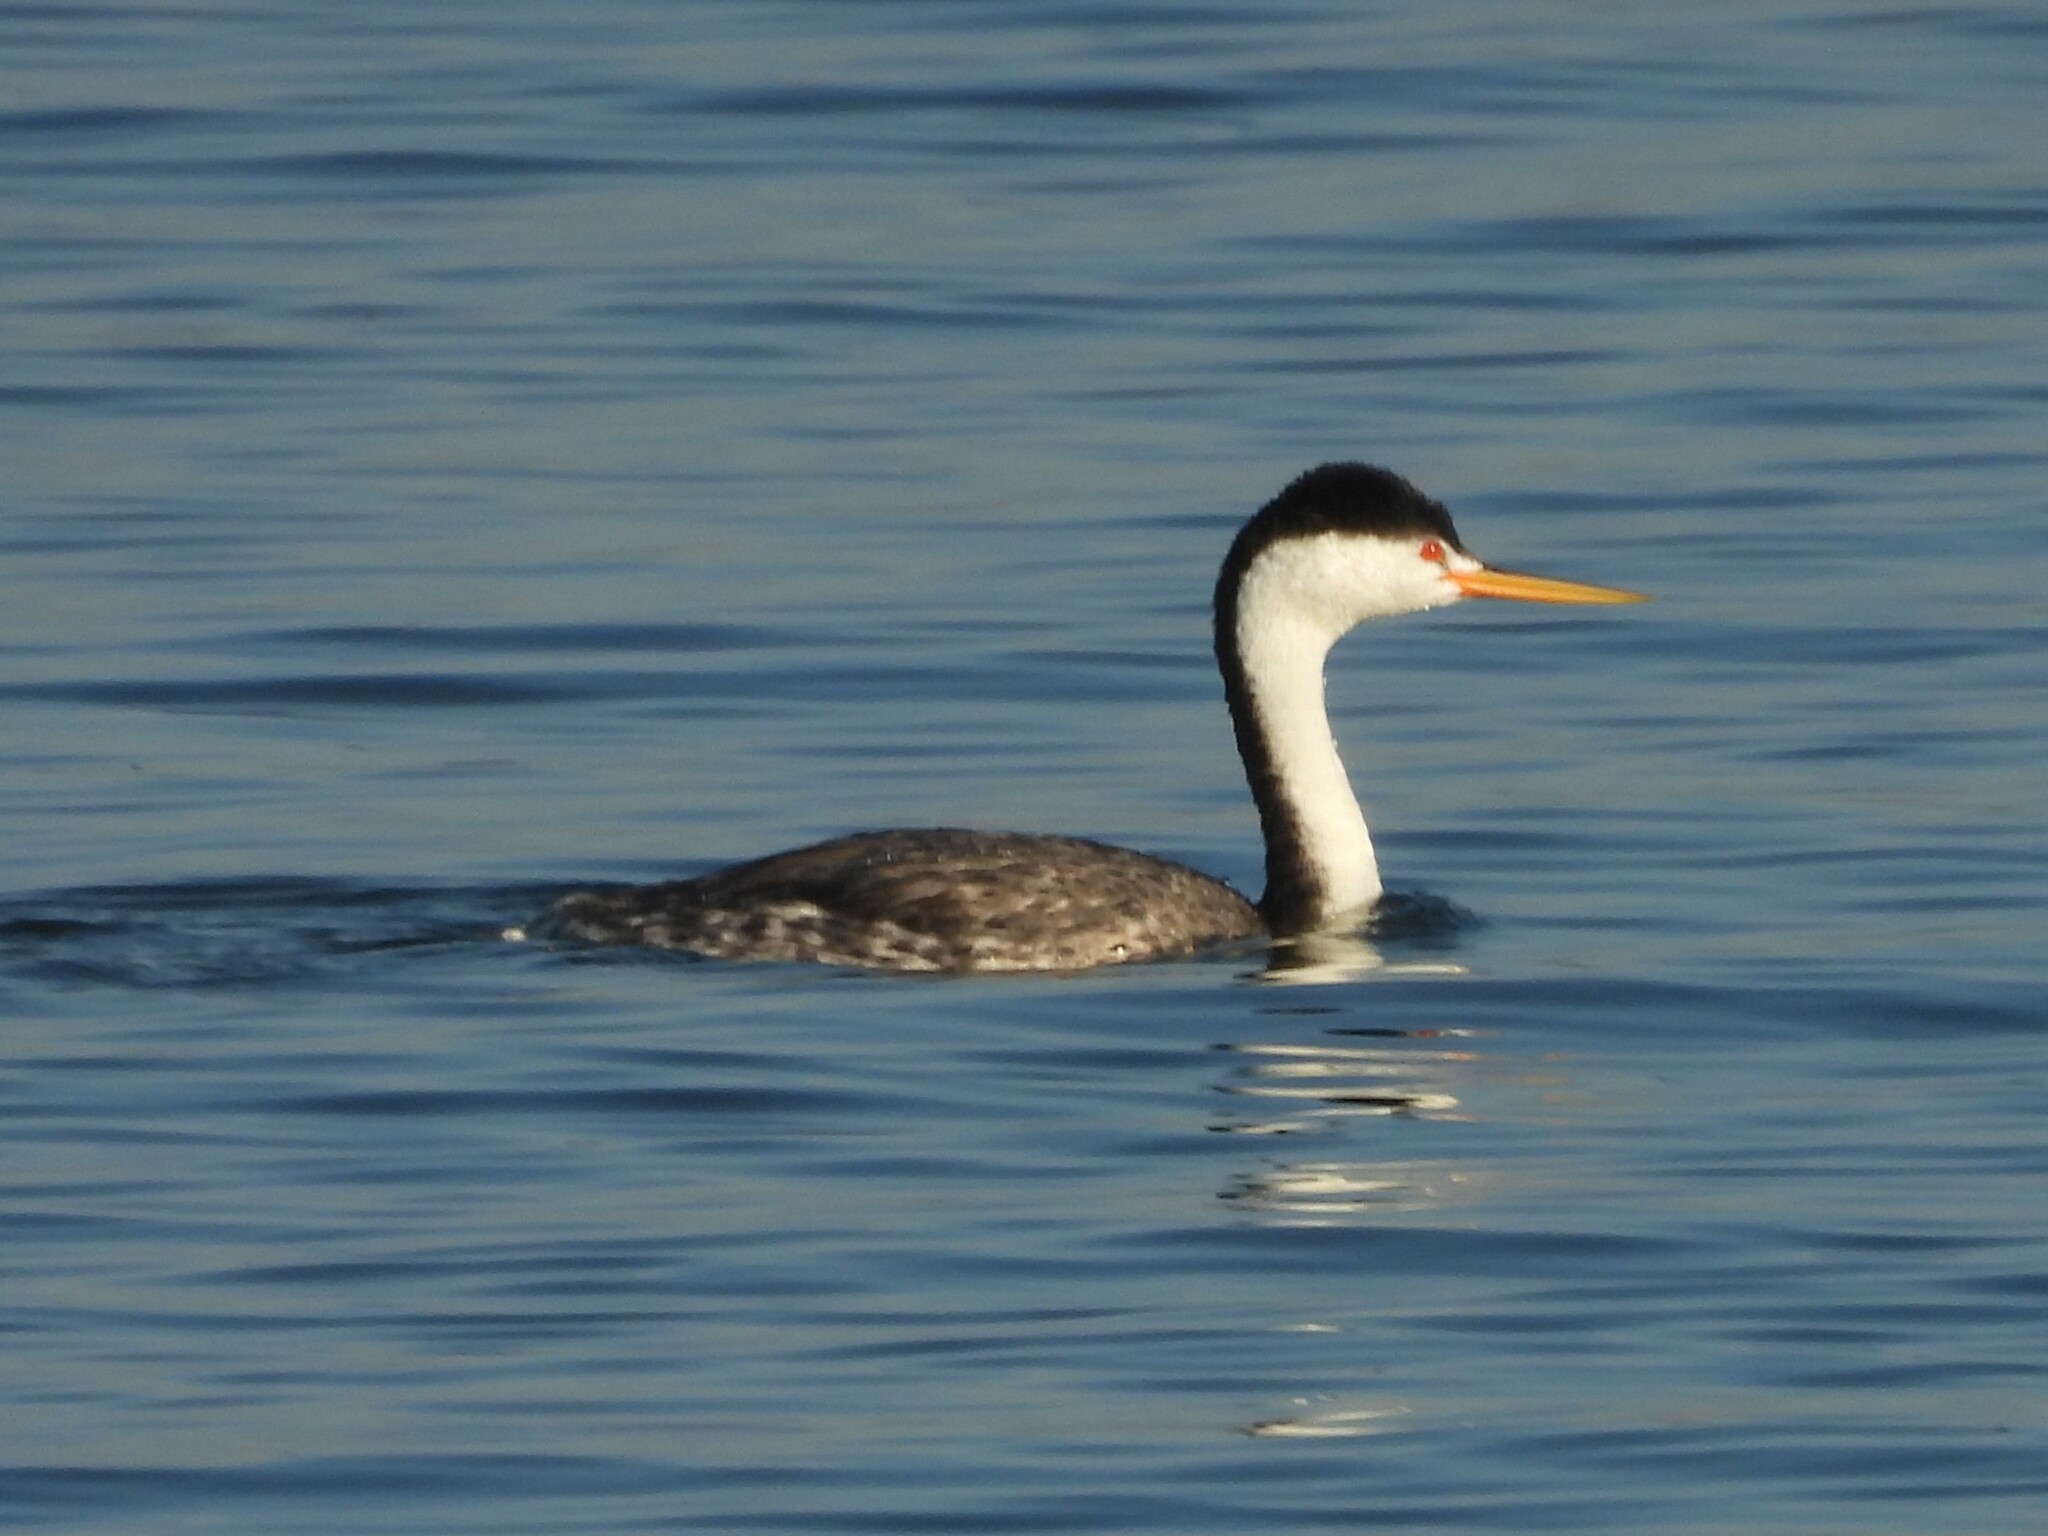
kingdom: Animalia
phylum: Chordata
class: Aves
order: Podicipediformes
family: Podicipedidae
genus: Aechmophorus
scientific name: Aechmophorus clarkii
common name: Clark's grebe
